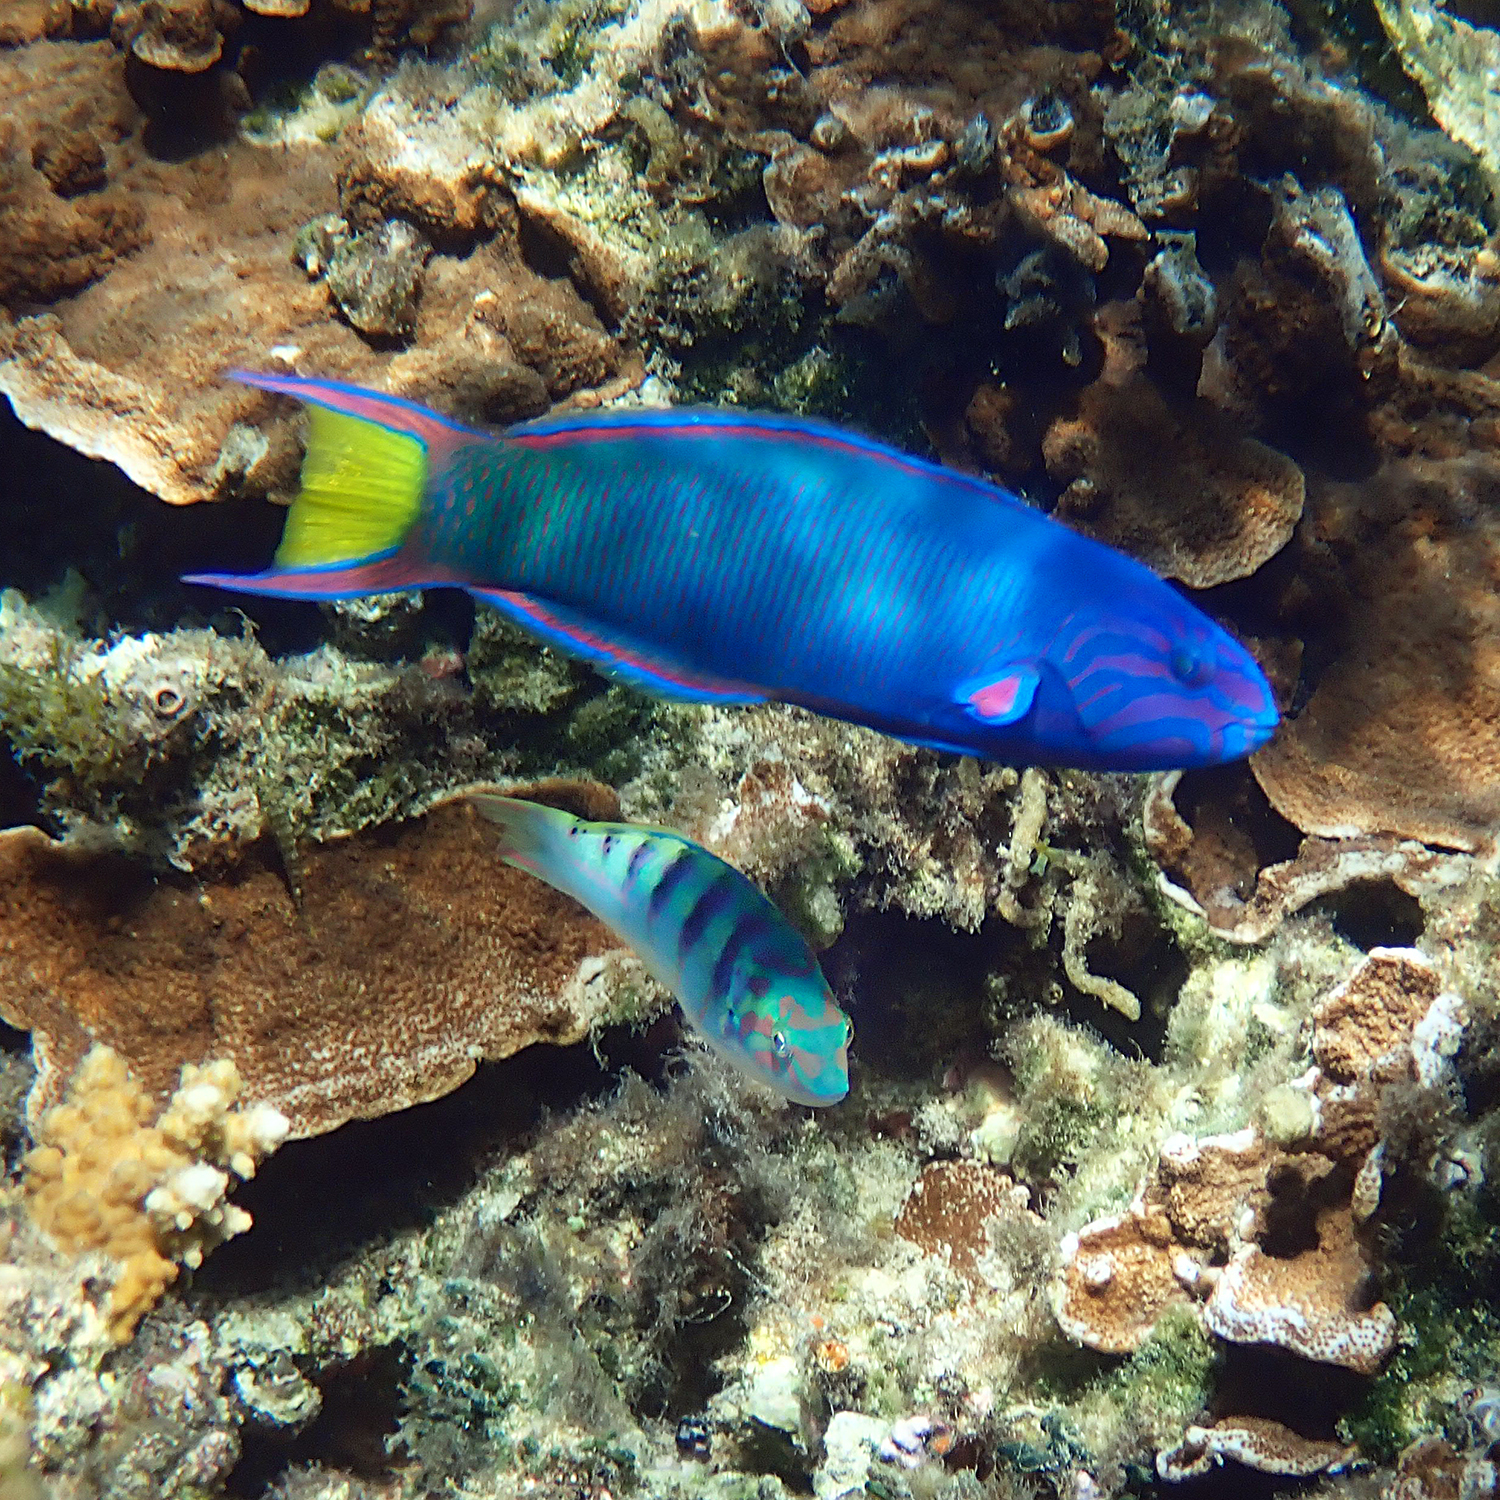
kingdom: Animalia
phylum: Chordata
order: Perciformes
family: Labridae
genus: Thalassoma
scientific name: Thalassoma lunare
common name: Blue wrasse
